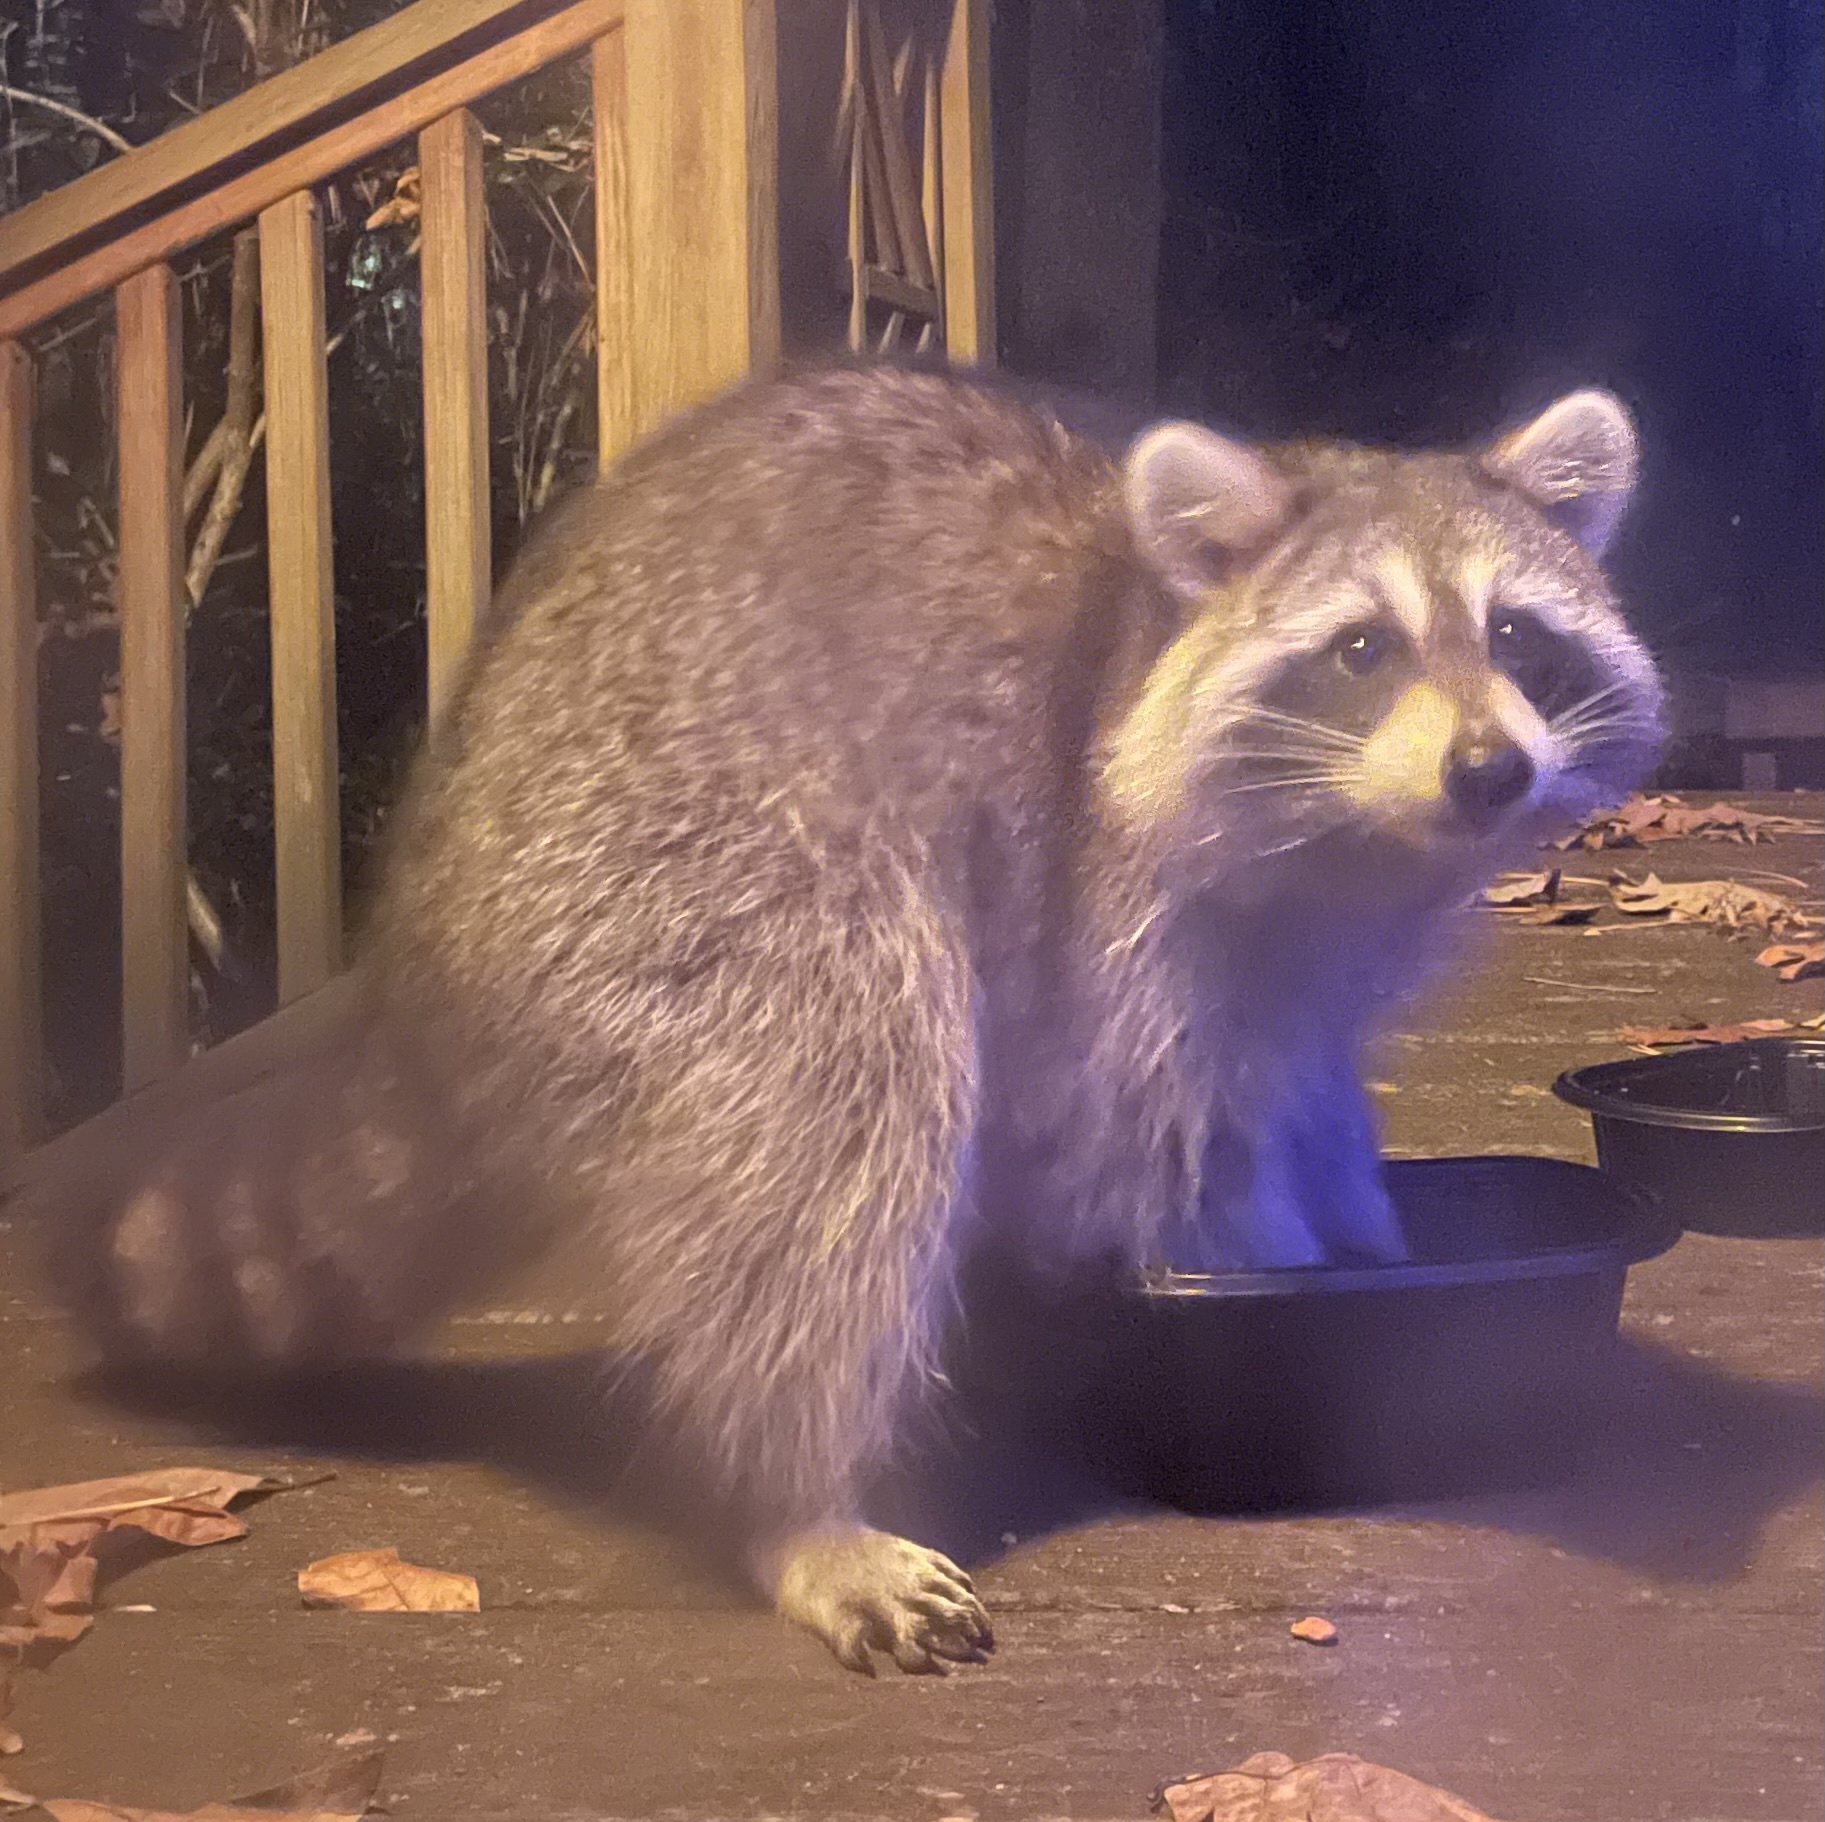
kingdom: Animalia
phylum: Chordata
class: Mammalia
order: Carnivora
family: Procyonidae
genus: Procyon
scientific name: Procyon lotor
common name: Raccoon
